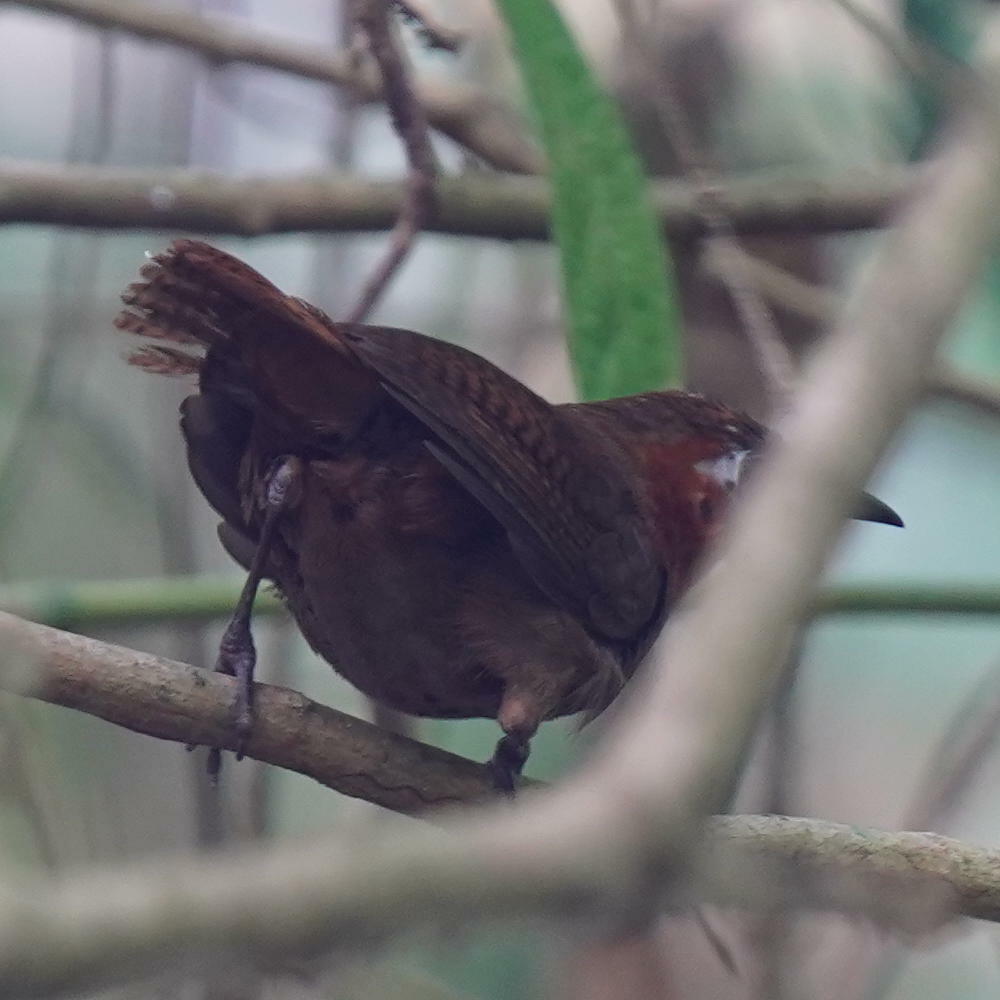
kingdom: Animalia
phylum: Chordata
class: Aves
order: Passeriformes
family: Troglodytidae
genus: Cyphorhinus
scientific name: Cyphorhinus phaeocephalus
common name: Song wren
